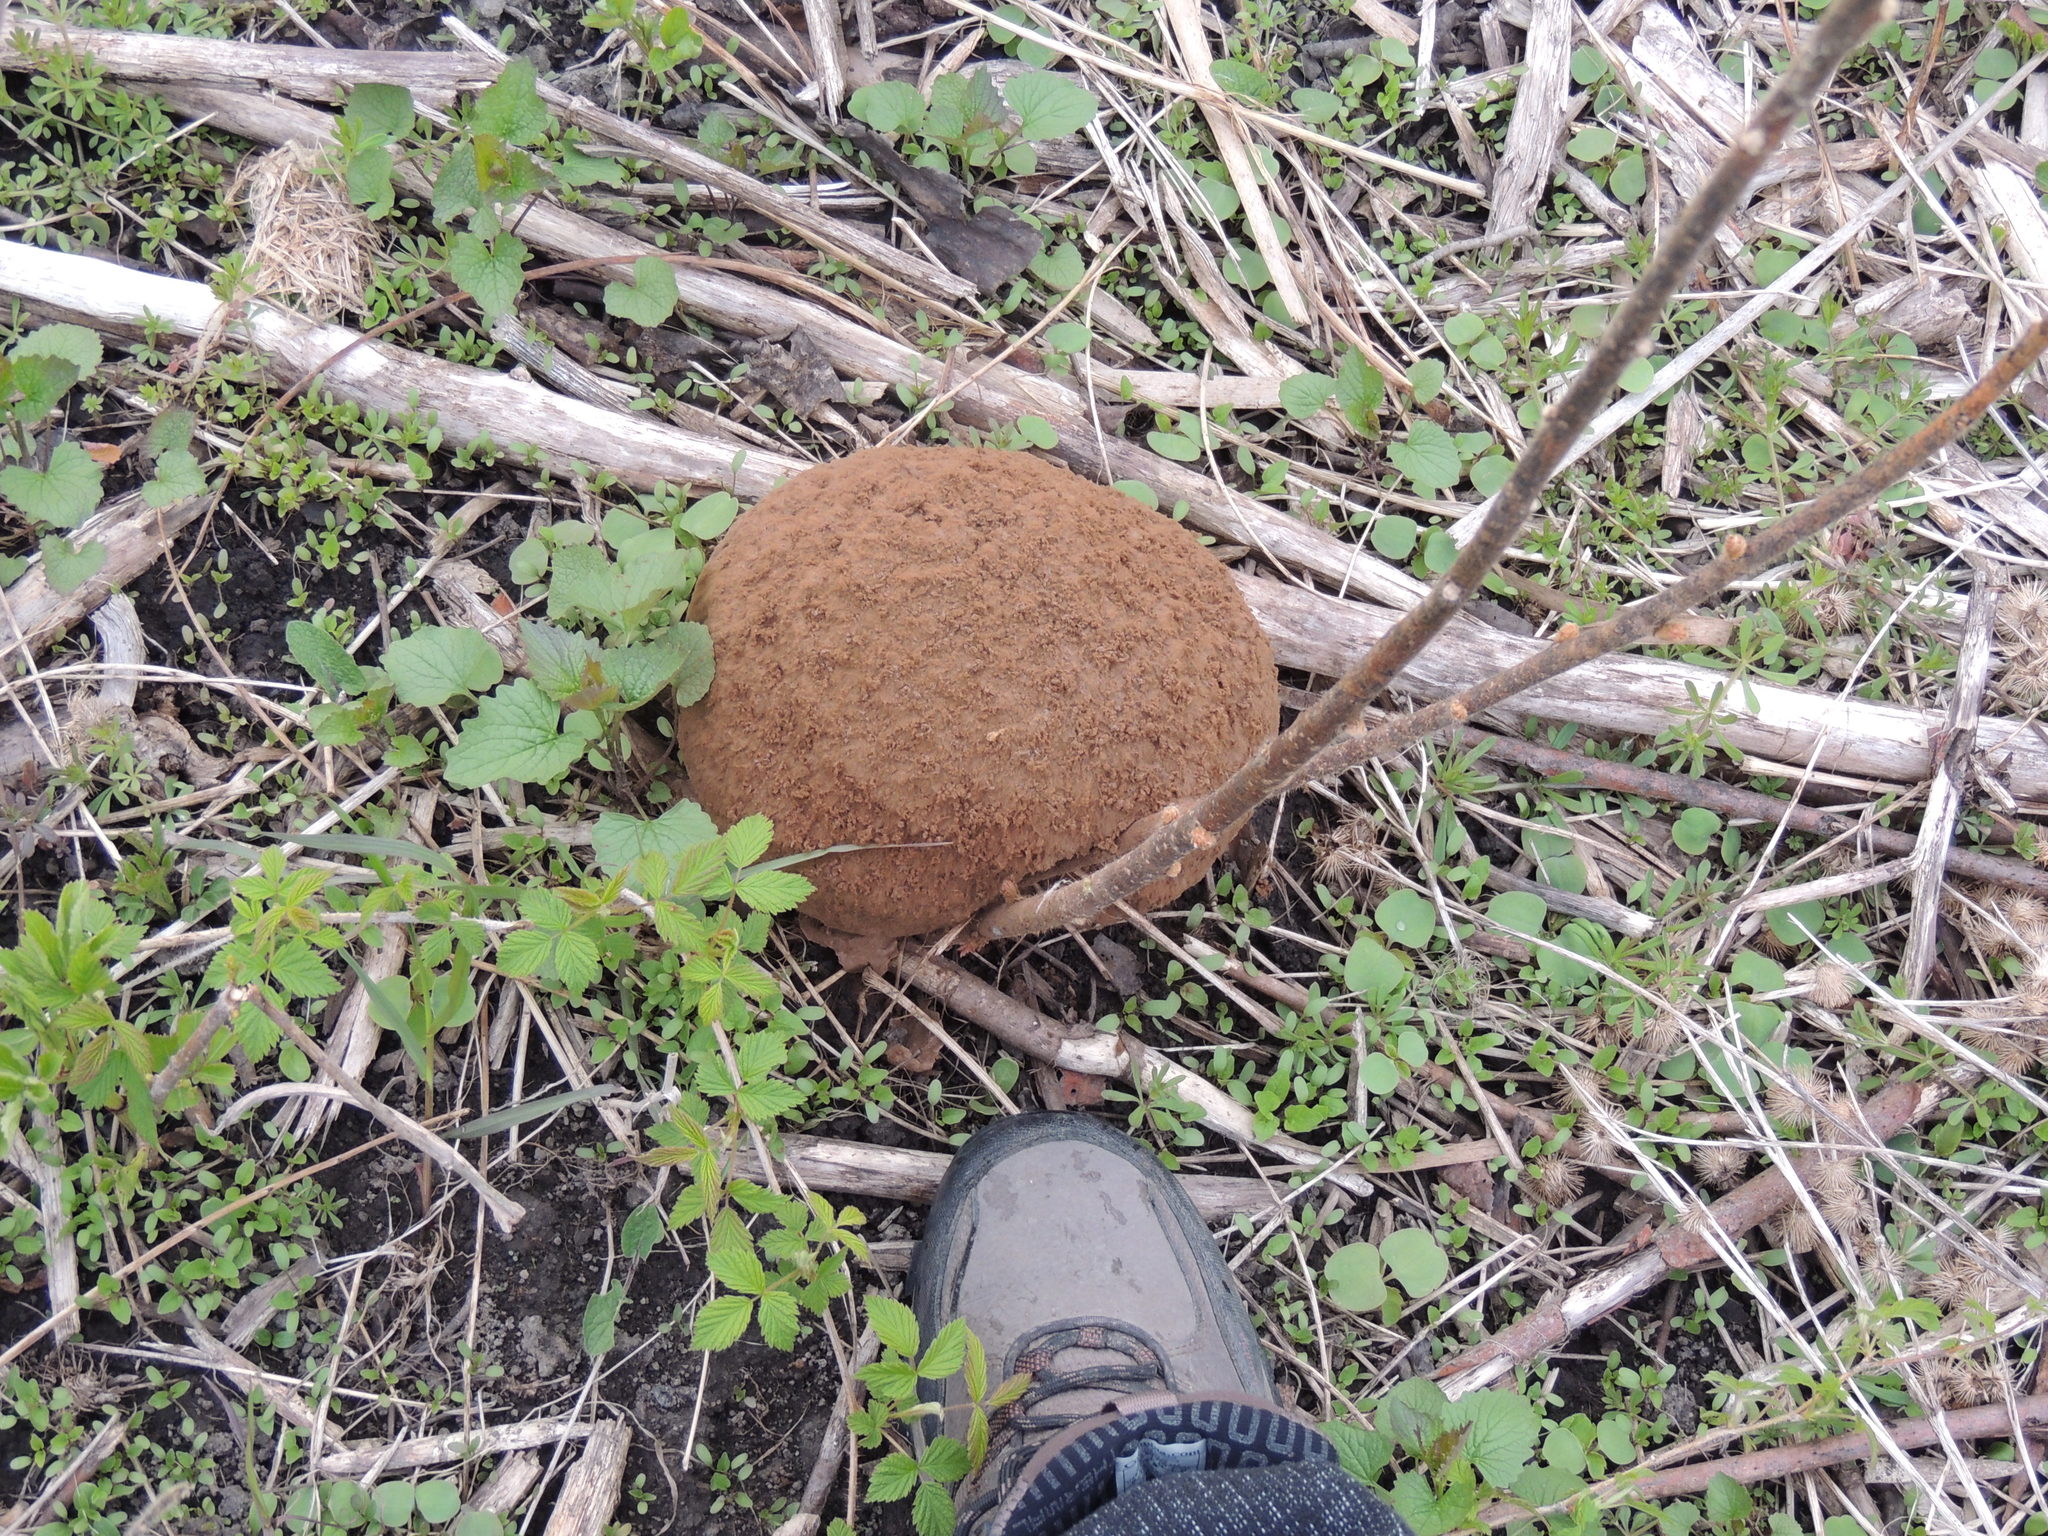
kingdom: Fungi
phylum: Basidiomycota
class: Agaricomycetes
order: Agaricales
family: Lycoperdaceae
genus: Calvatia
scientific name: Calvatia gigantea
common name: Giant puffball
